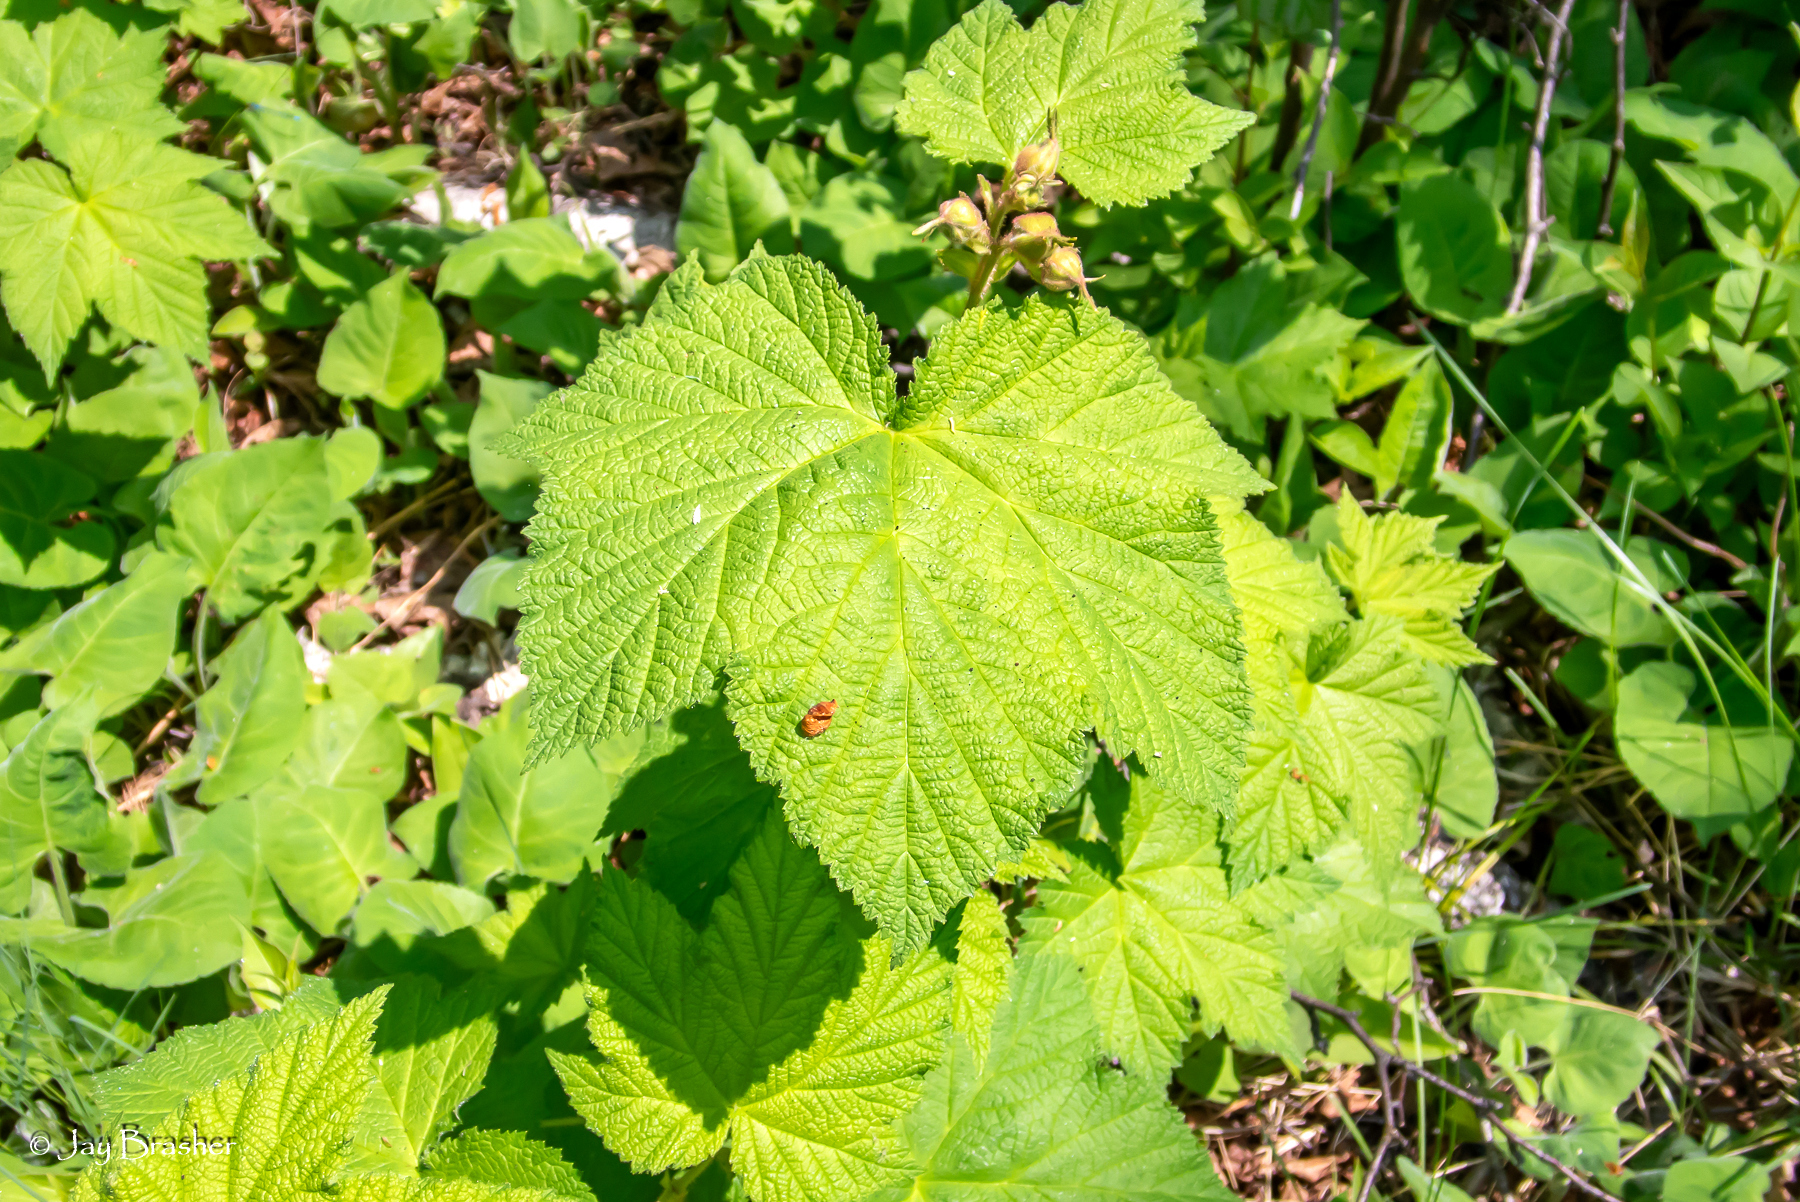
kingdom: Plantae
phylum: Tracheophyta
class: Magnoliopsida
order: Rosales
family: Rosaceae
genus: Rubus
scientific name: Rubus parviflorus
